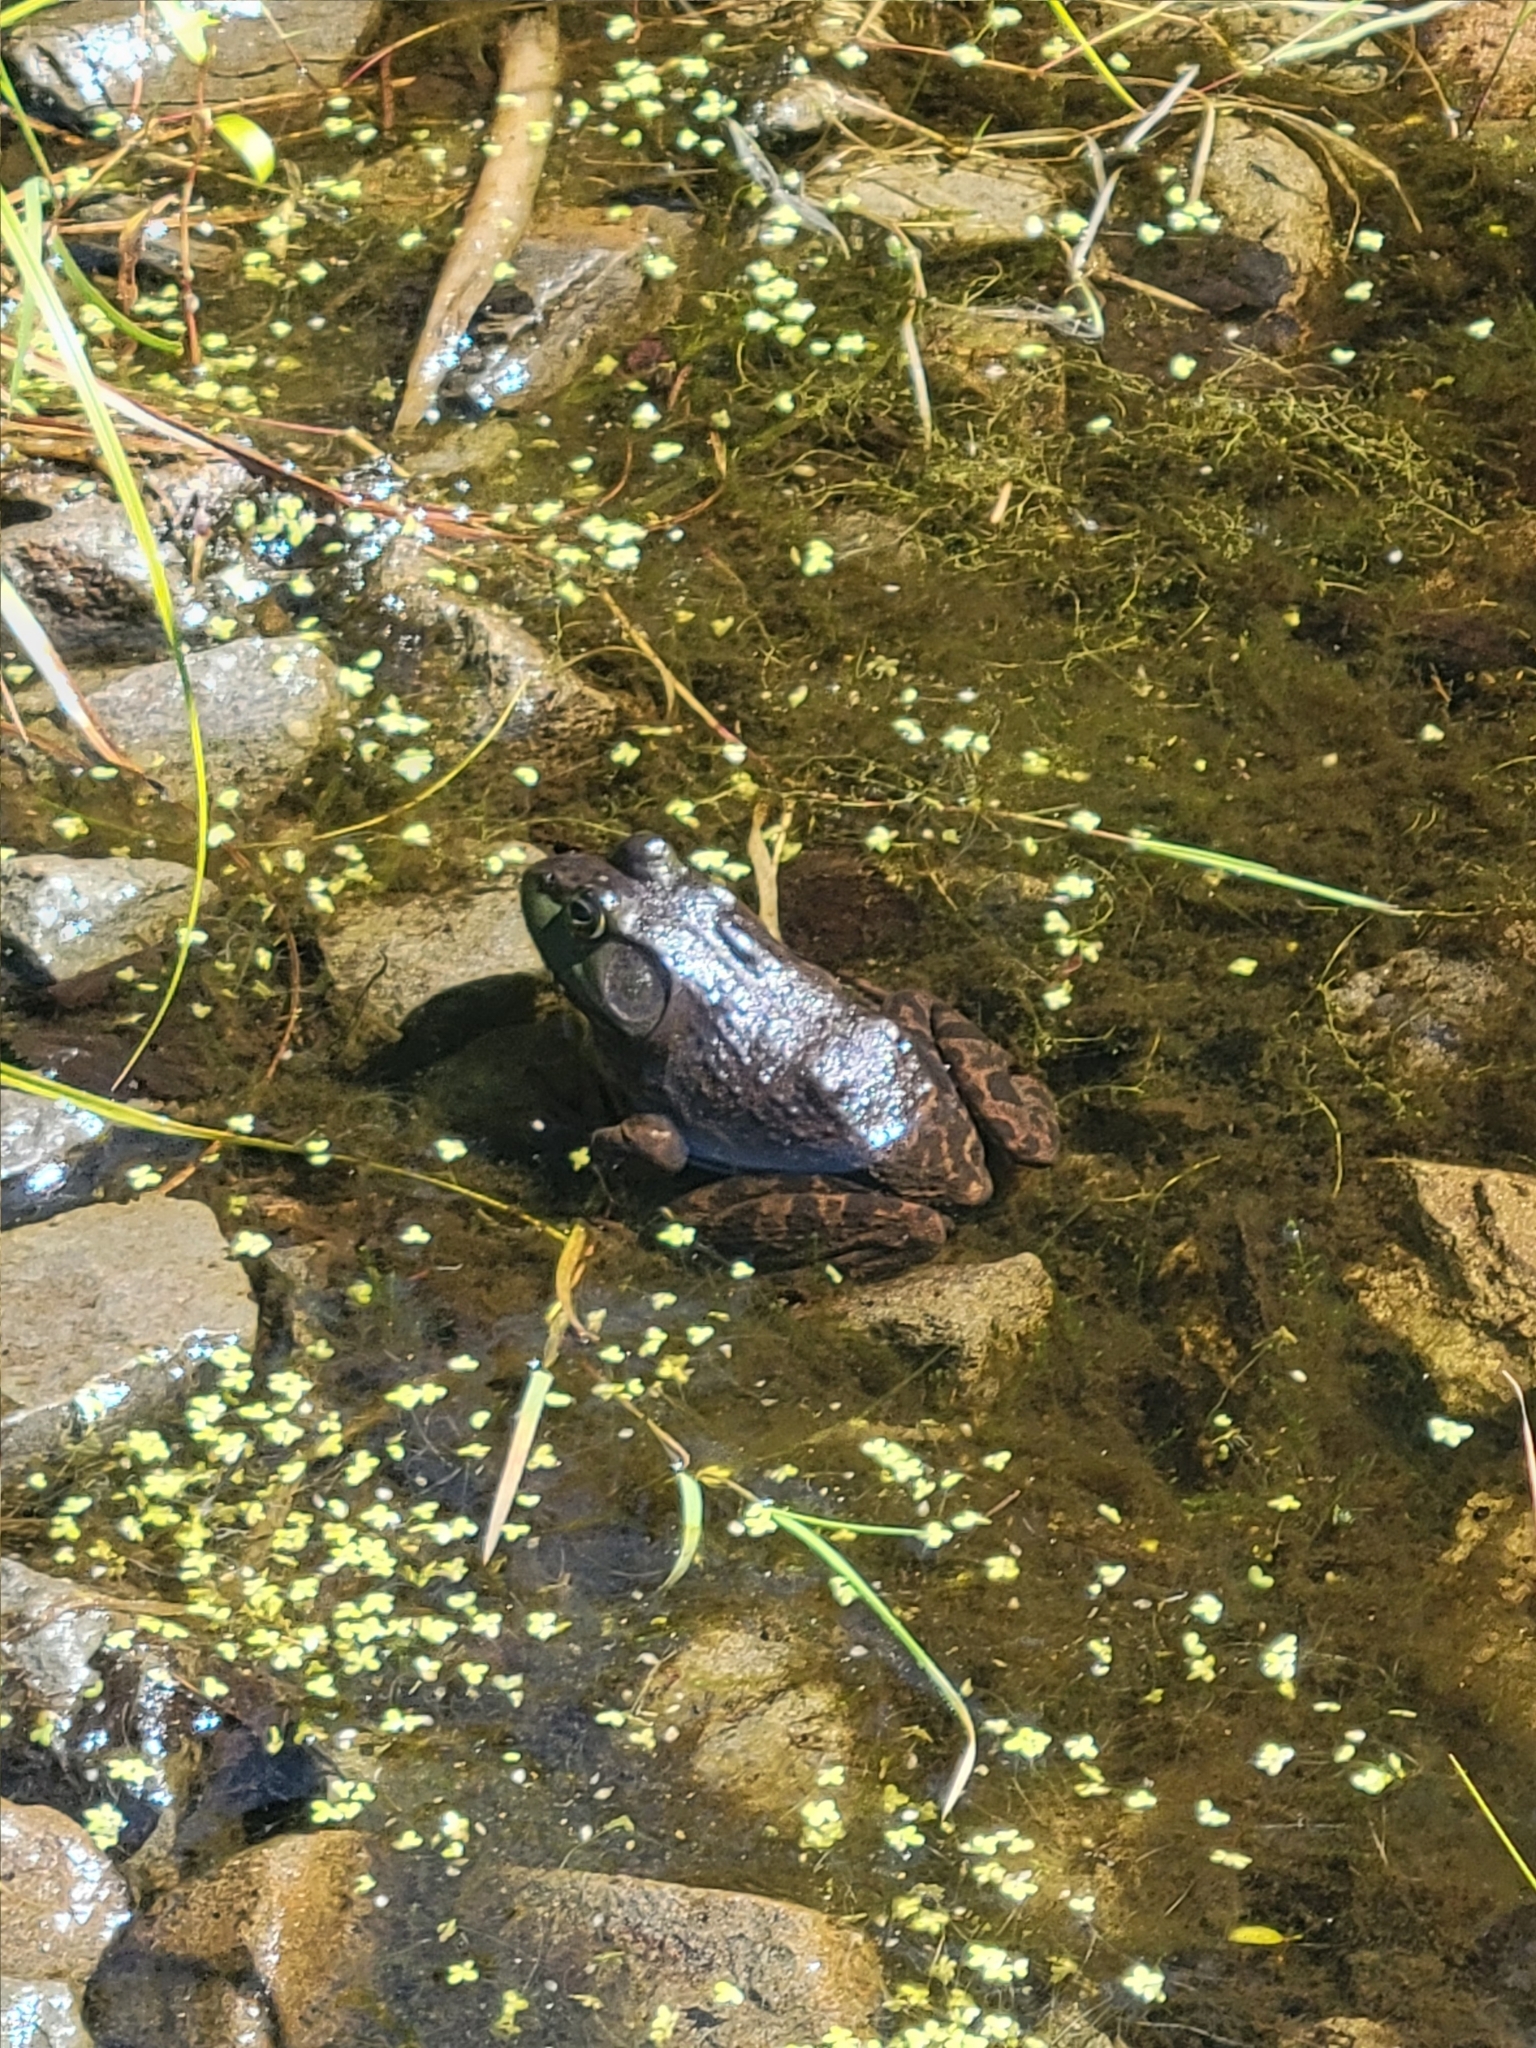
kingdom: Animalia
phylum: Chordata
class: Amphibia
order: Anura
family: Ranidae
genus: Lithobates
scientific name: Lithobates catesbeianus
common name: American bullfrog
